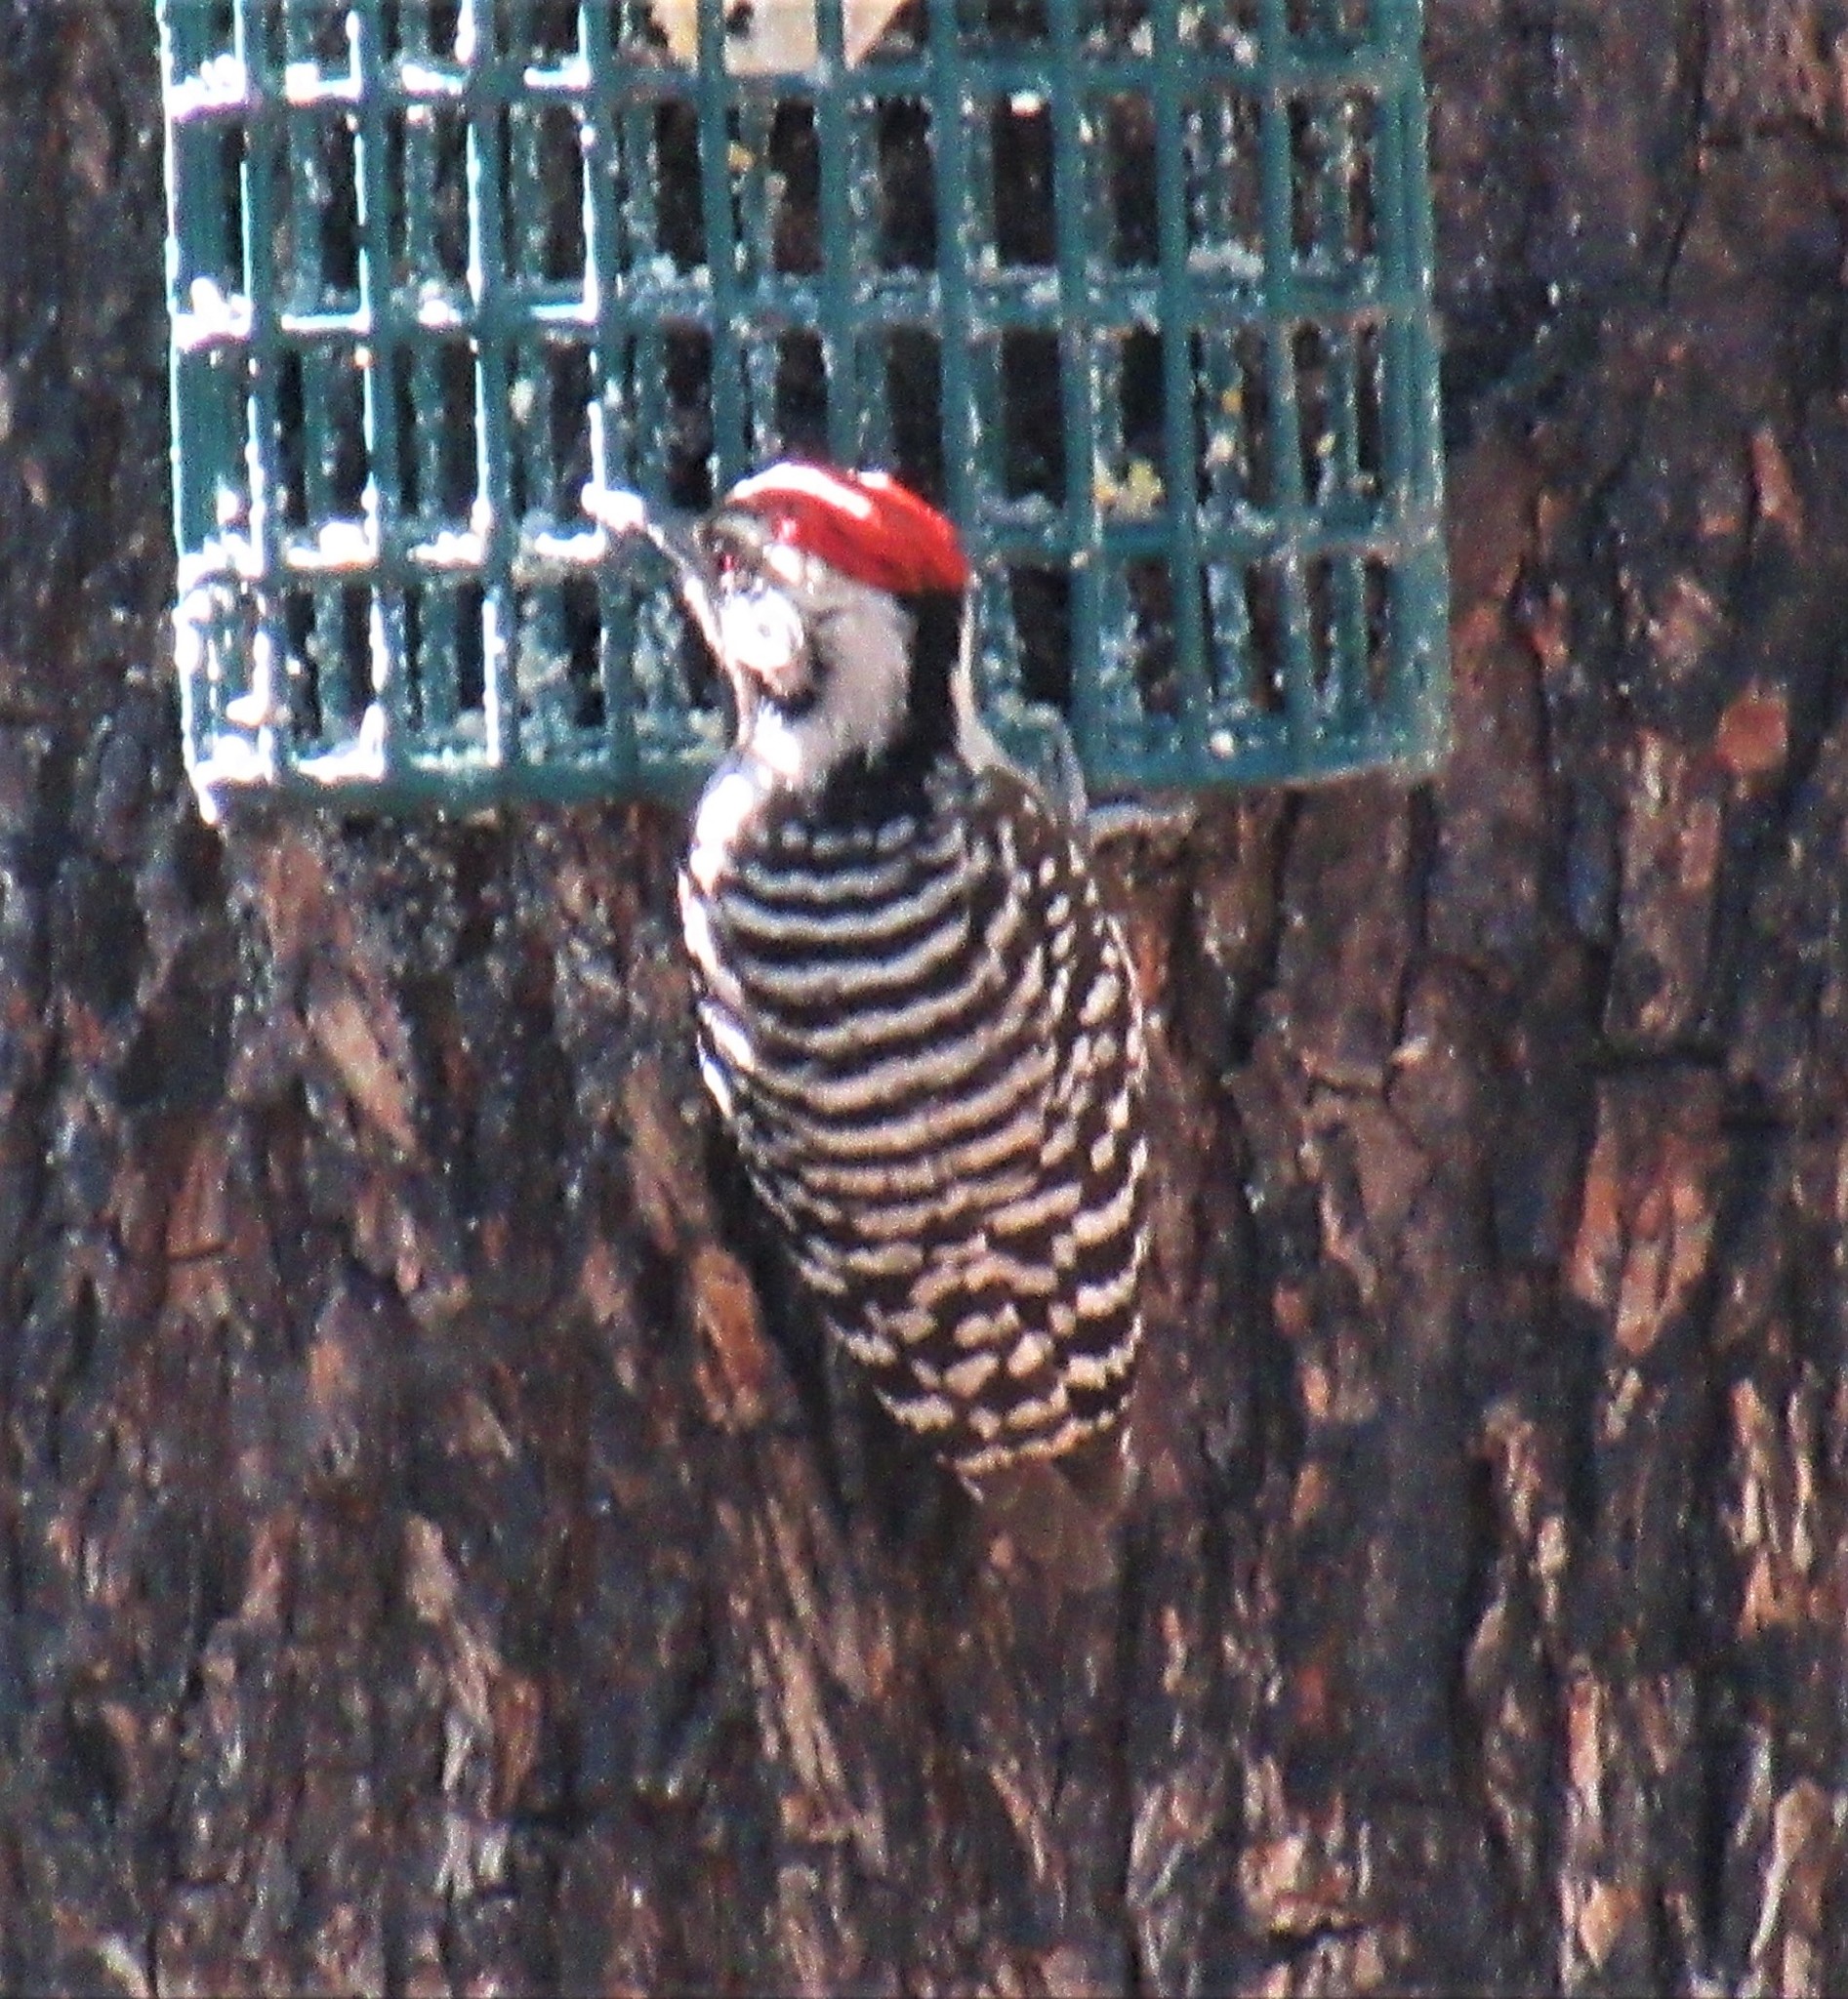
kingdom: Animalia
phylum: Chordata
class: Aves
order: Piciformes
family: Picidae
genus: Dryobates
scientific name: Dryobates scalaris
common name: Ladder-backed woodpecker
